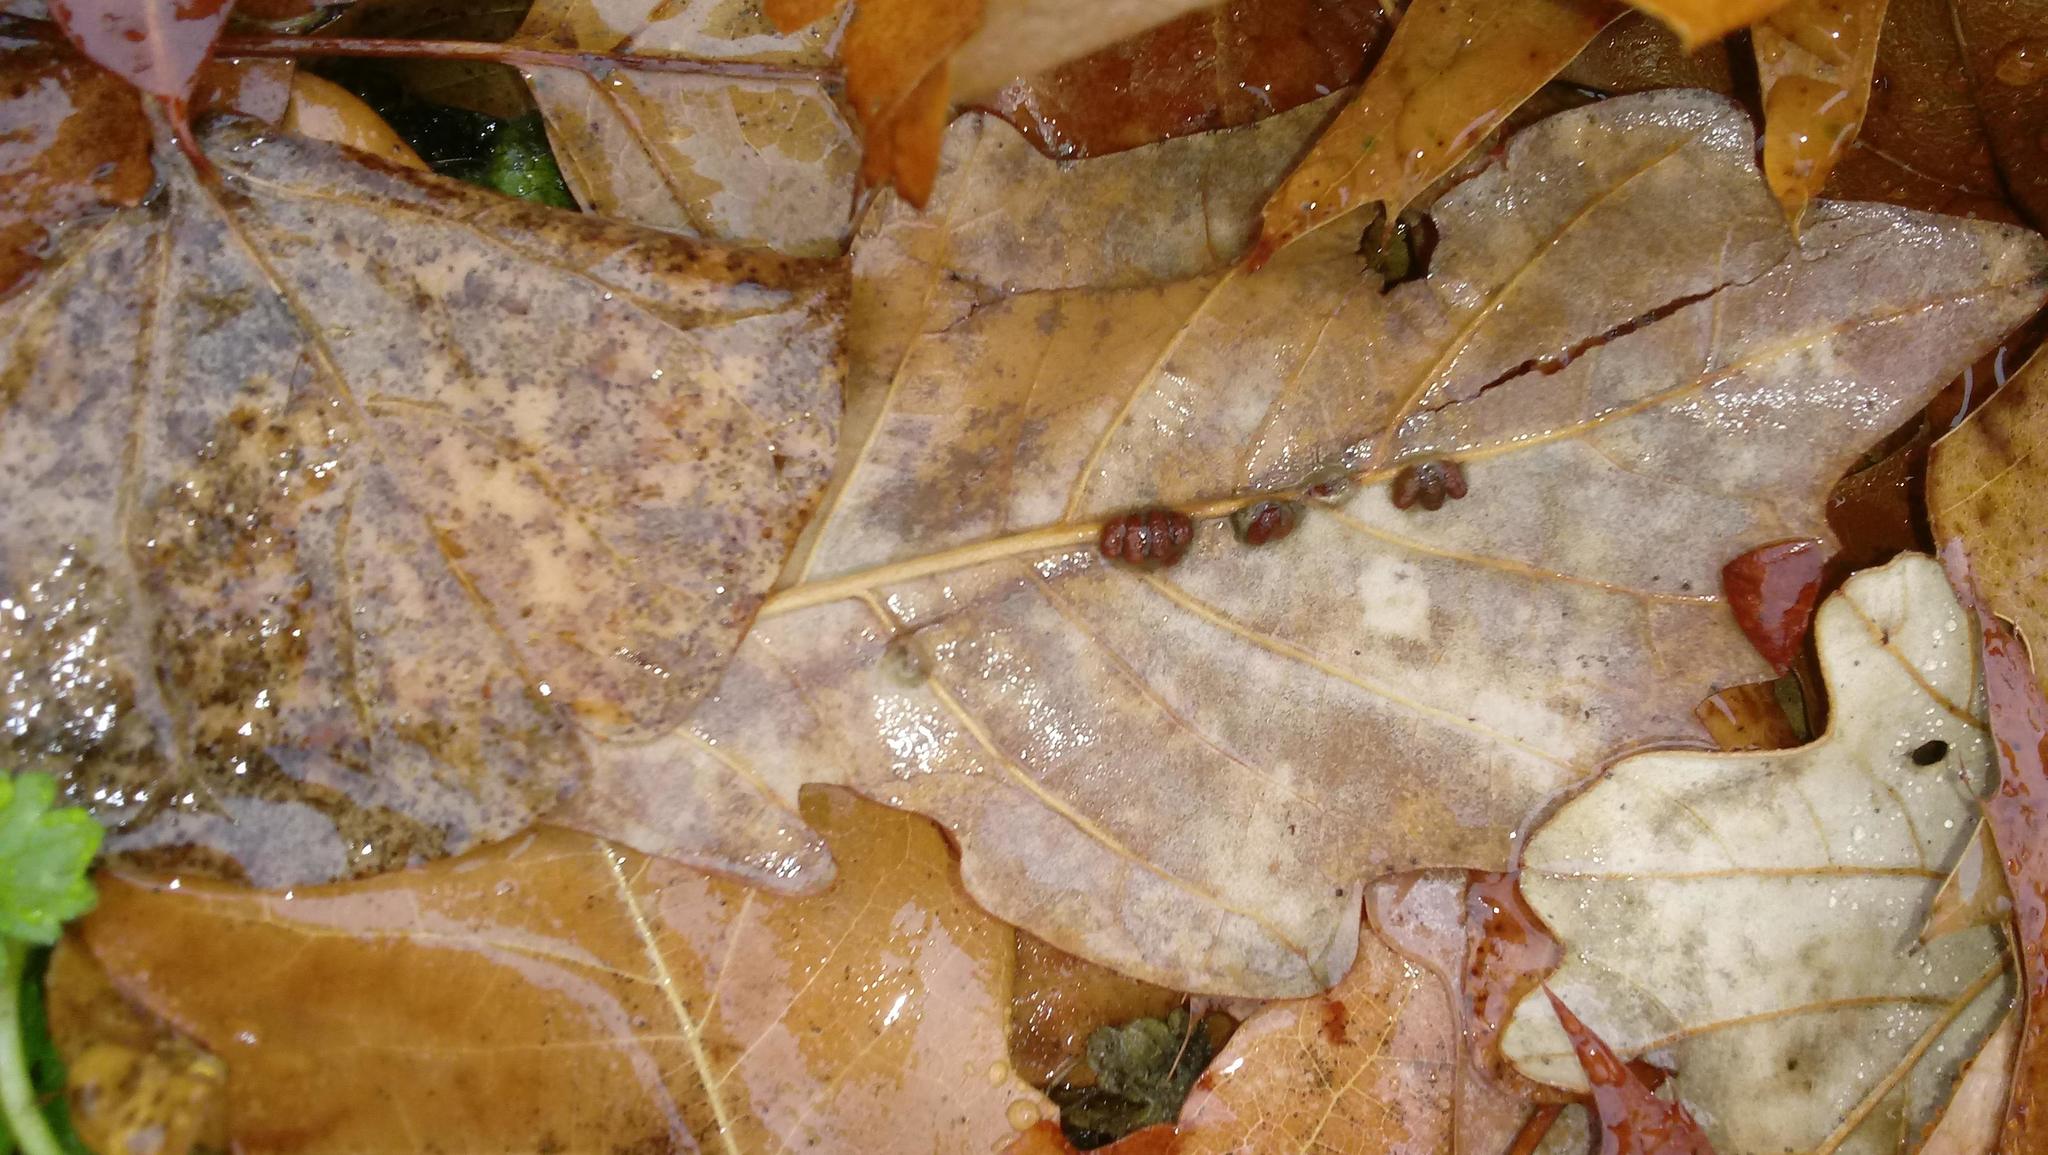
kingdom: Animalia
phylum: Arthropoda
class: Insecta
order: Hymenoptera
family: Cynipidae
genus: Andricus
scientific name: Andricus Druon ignotum
